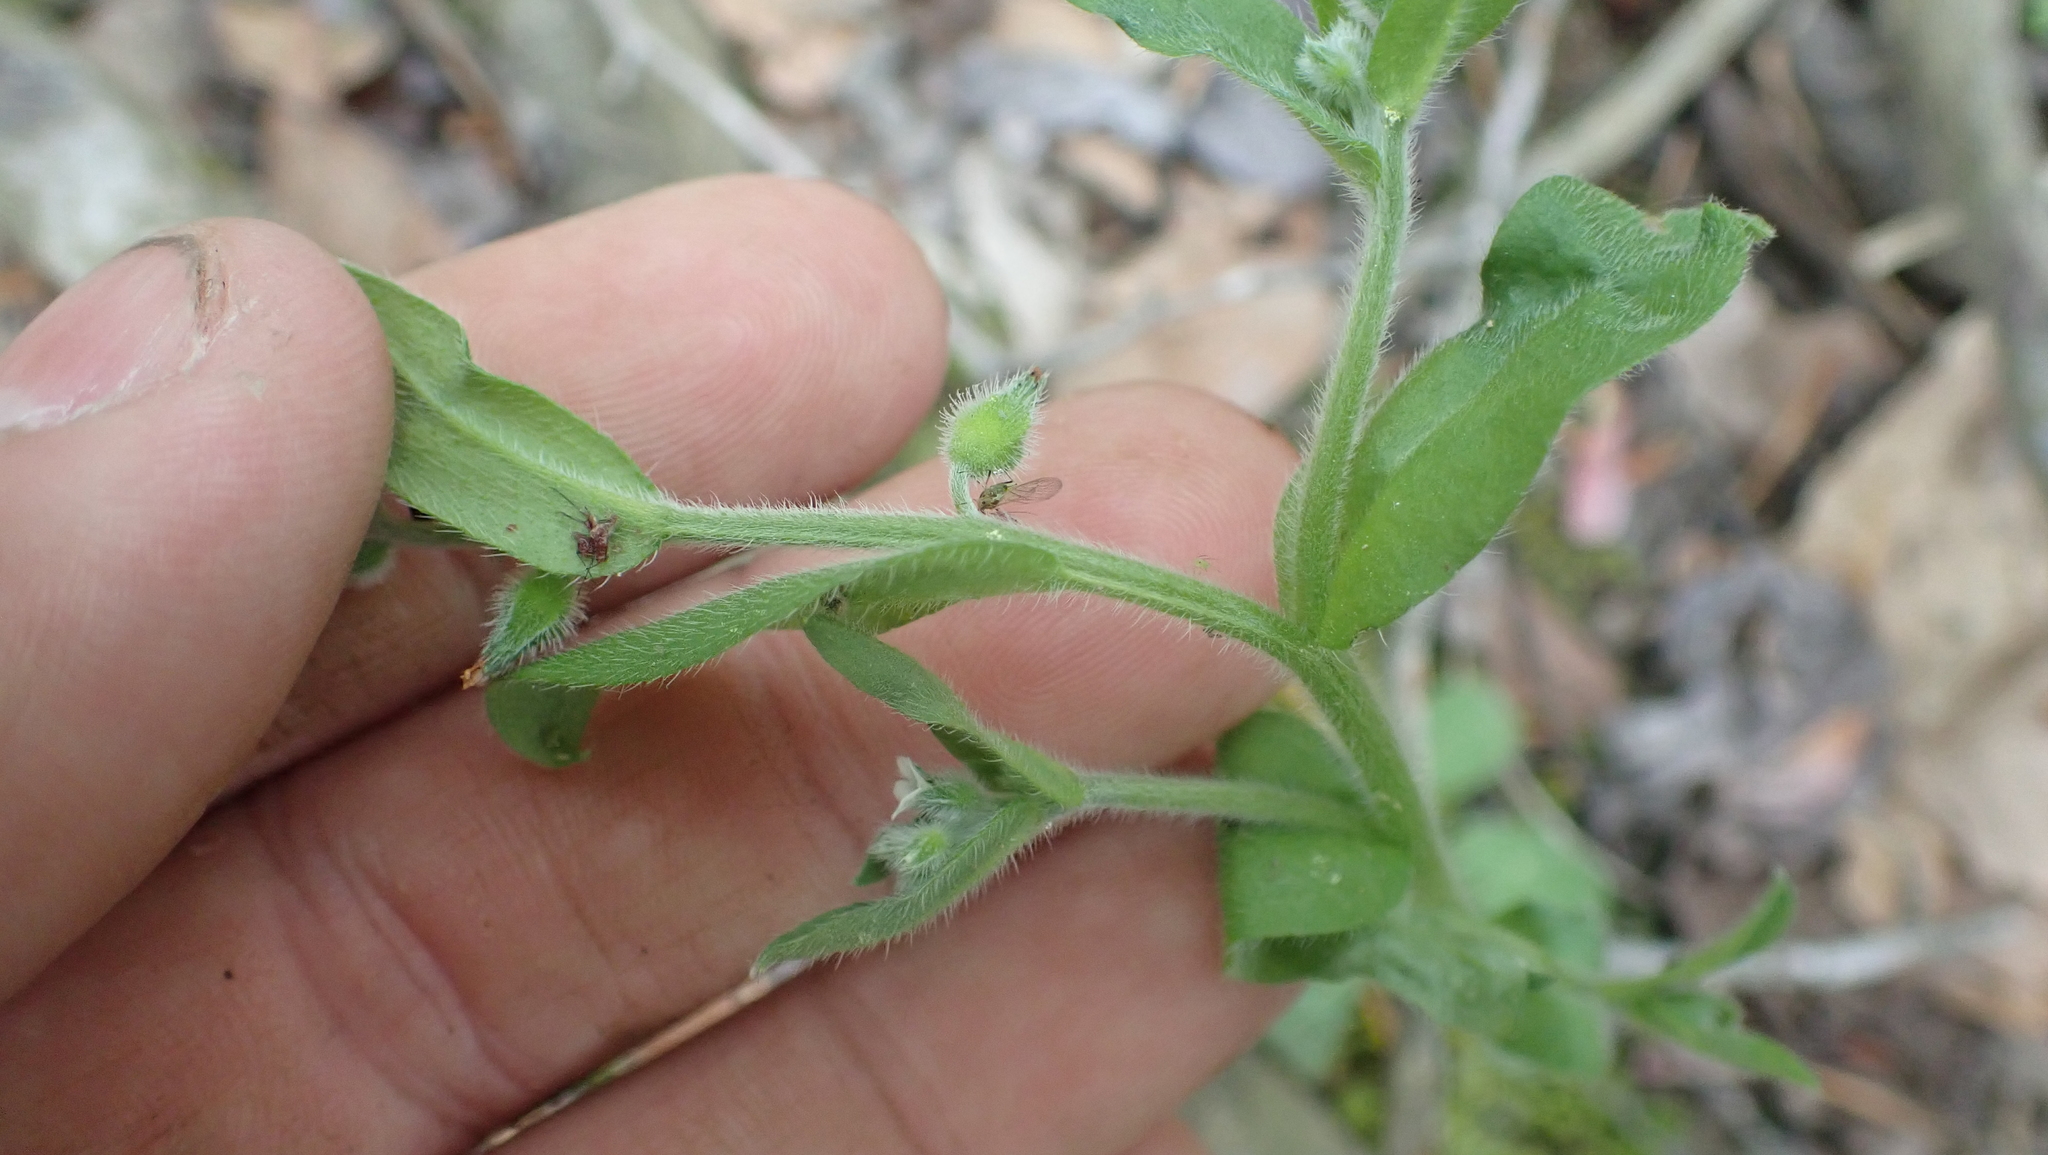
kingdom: Plantae
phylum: Tracheophyta
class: Magnoliopsida
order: Boraginales
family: Boraginaceae
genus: Myosotis
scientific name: Myosotis macrosperma
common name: Large-seed forget-me-not
